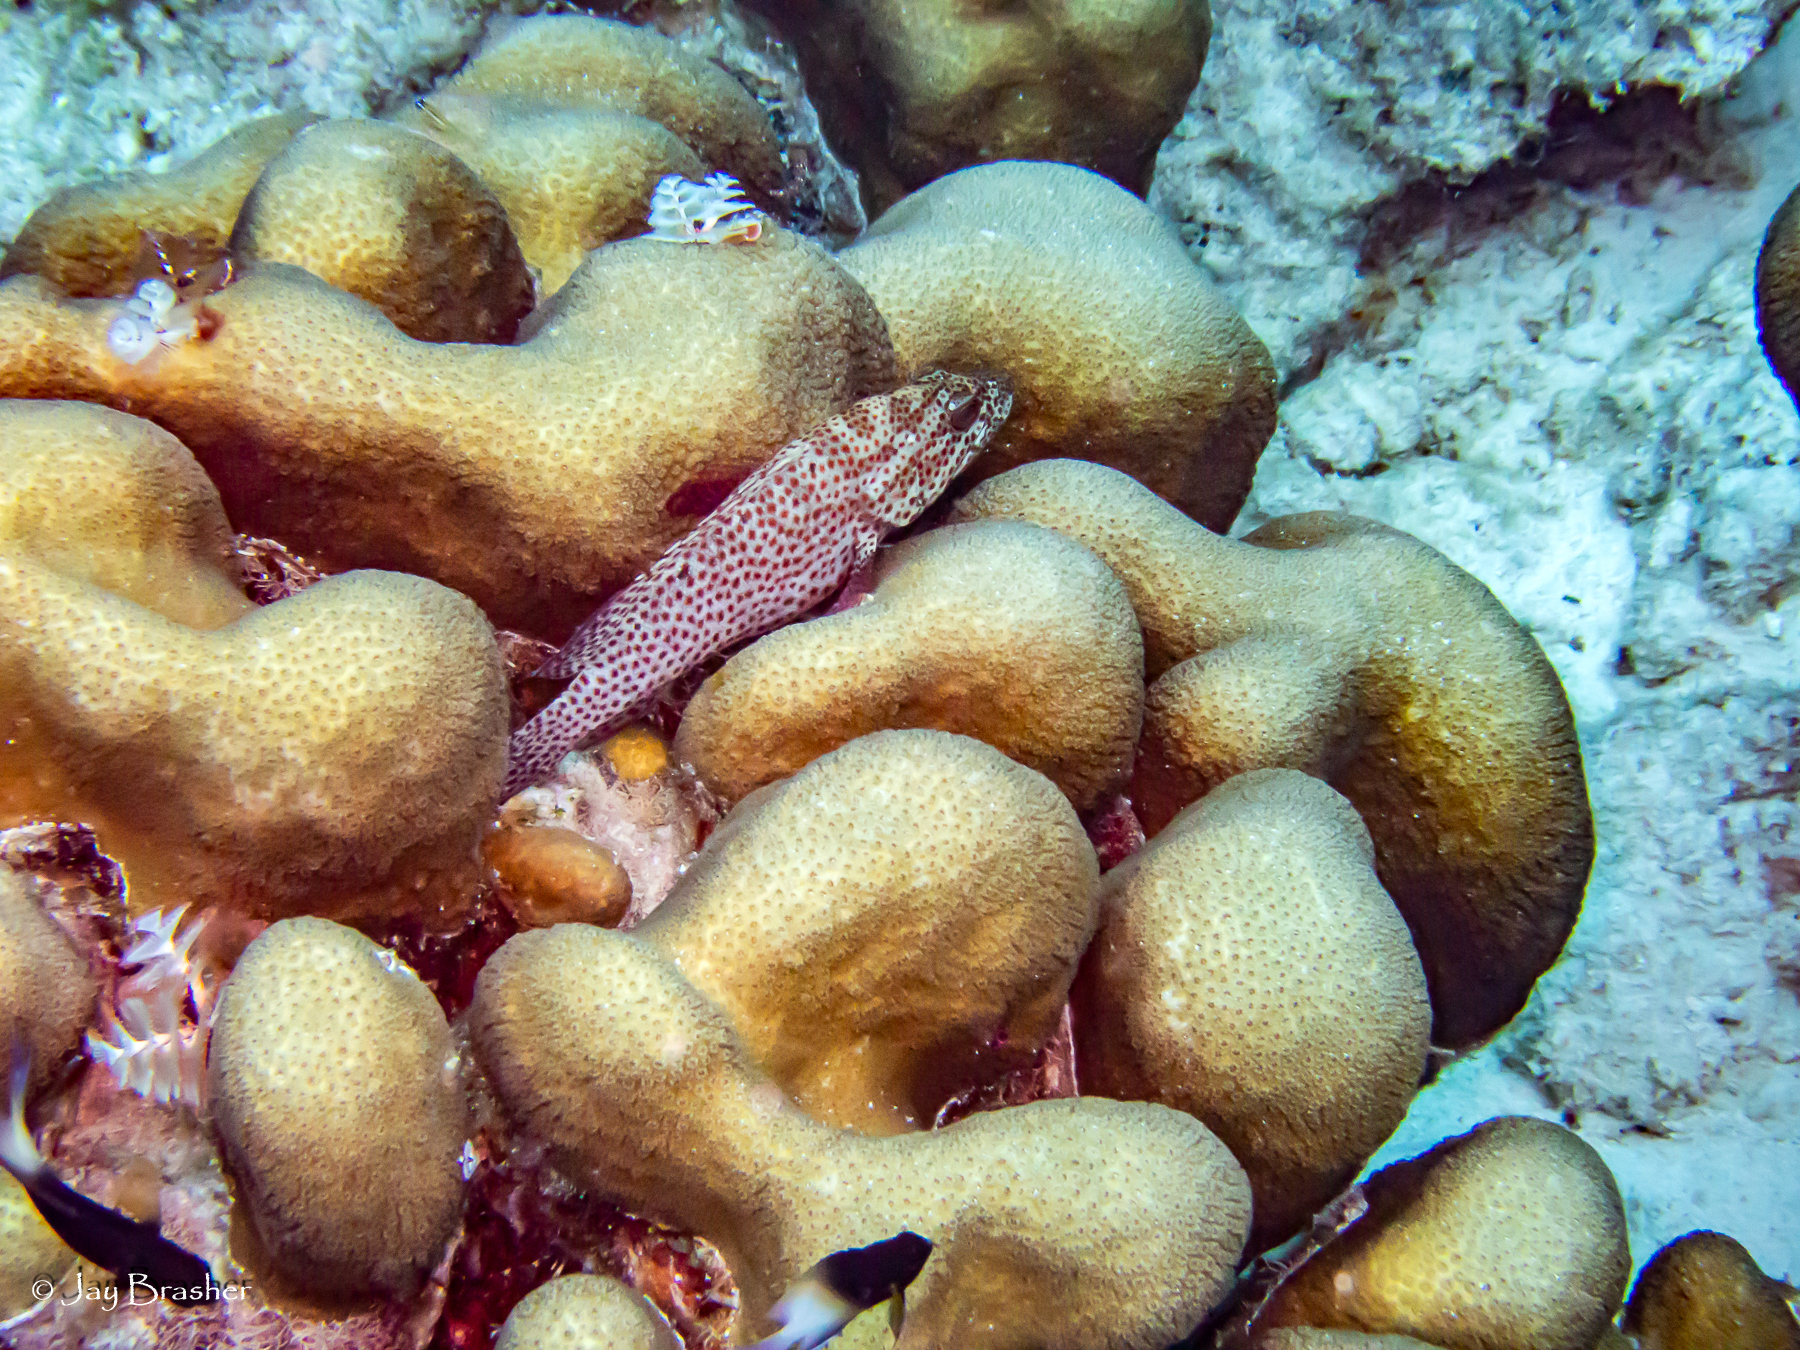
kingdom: Animalia
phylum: Chordata
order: Perciformes
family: Serranidae
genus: Cephalopholis
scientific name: Cephalopholis cruentata
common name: Graysby
